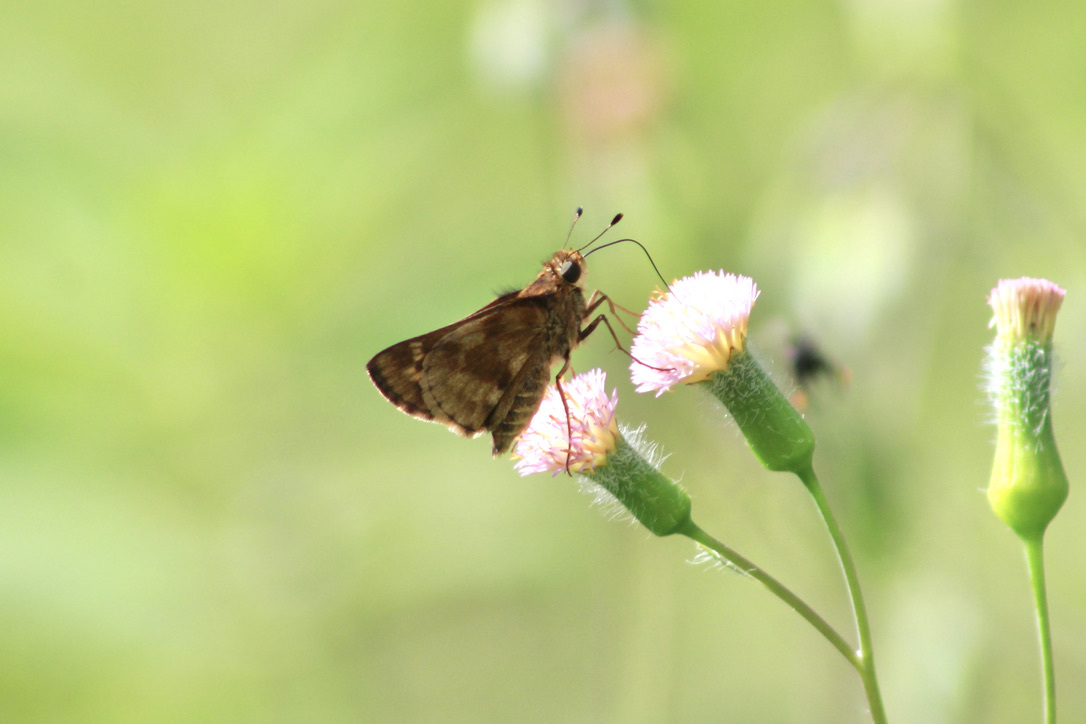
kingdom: Animalia
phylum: Arthropoda
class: Insecta
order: Lepidoptera
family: Hesperiidae
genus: Pompeius
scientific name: Pompeius pompeius
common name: Pompeius skipper
